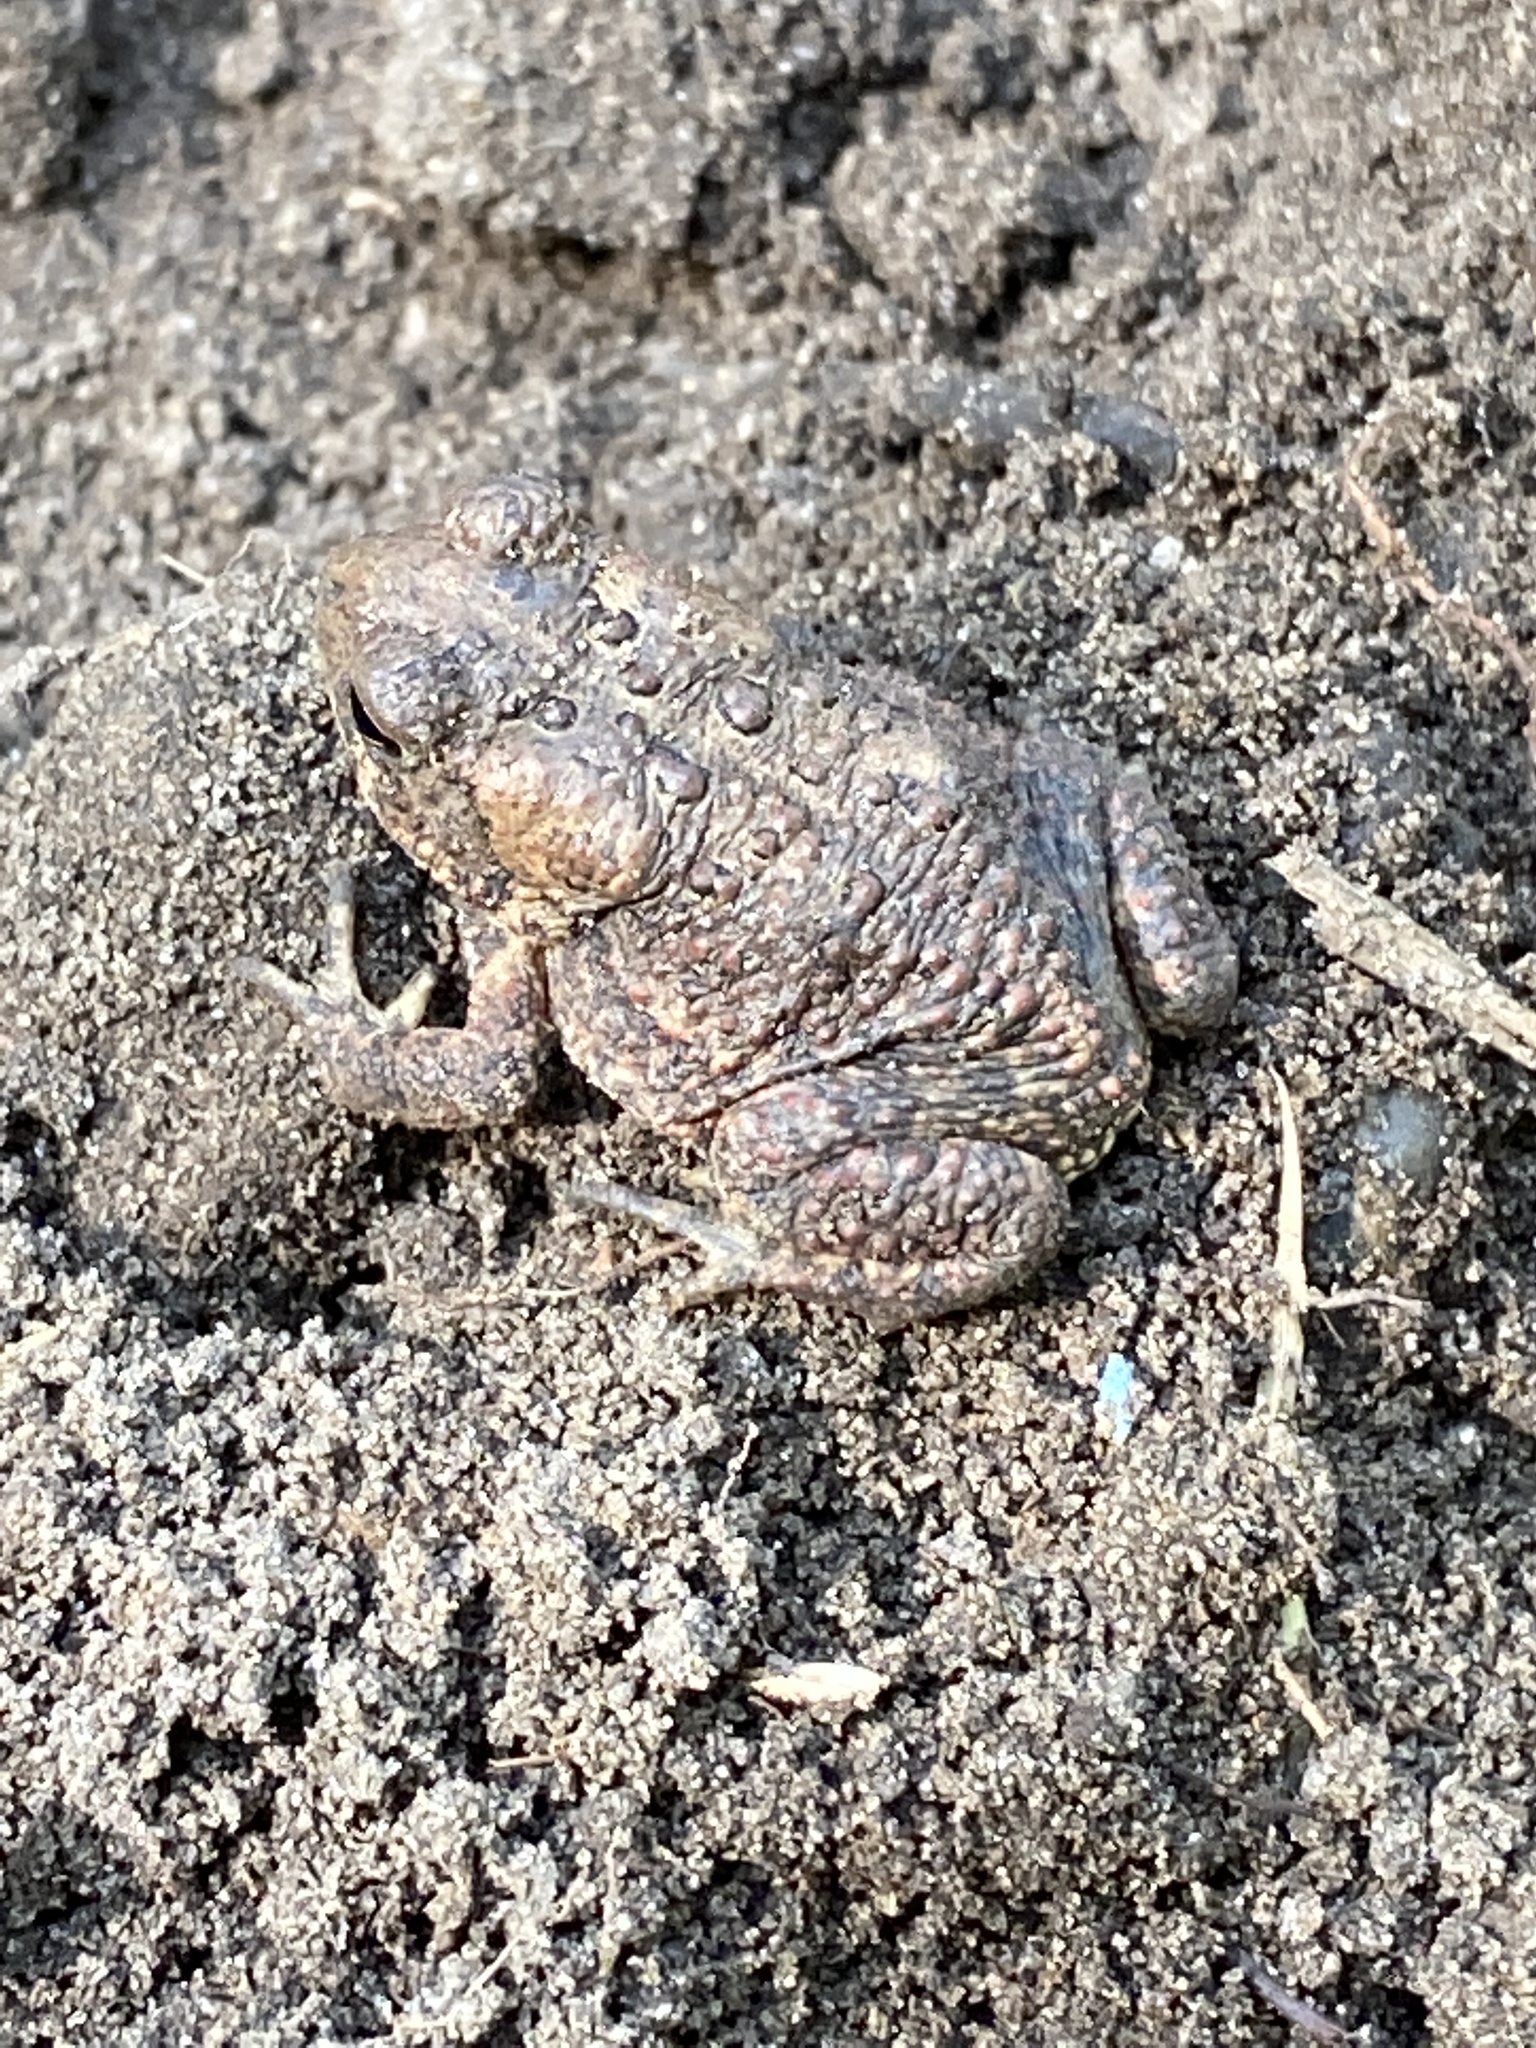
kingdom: Animalia
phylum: Chordata
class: Amphibia
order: Anura
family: Bufonidae
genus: Anaxyrus
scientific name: Anaxyrus americanus
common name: American toad
